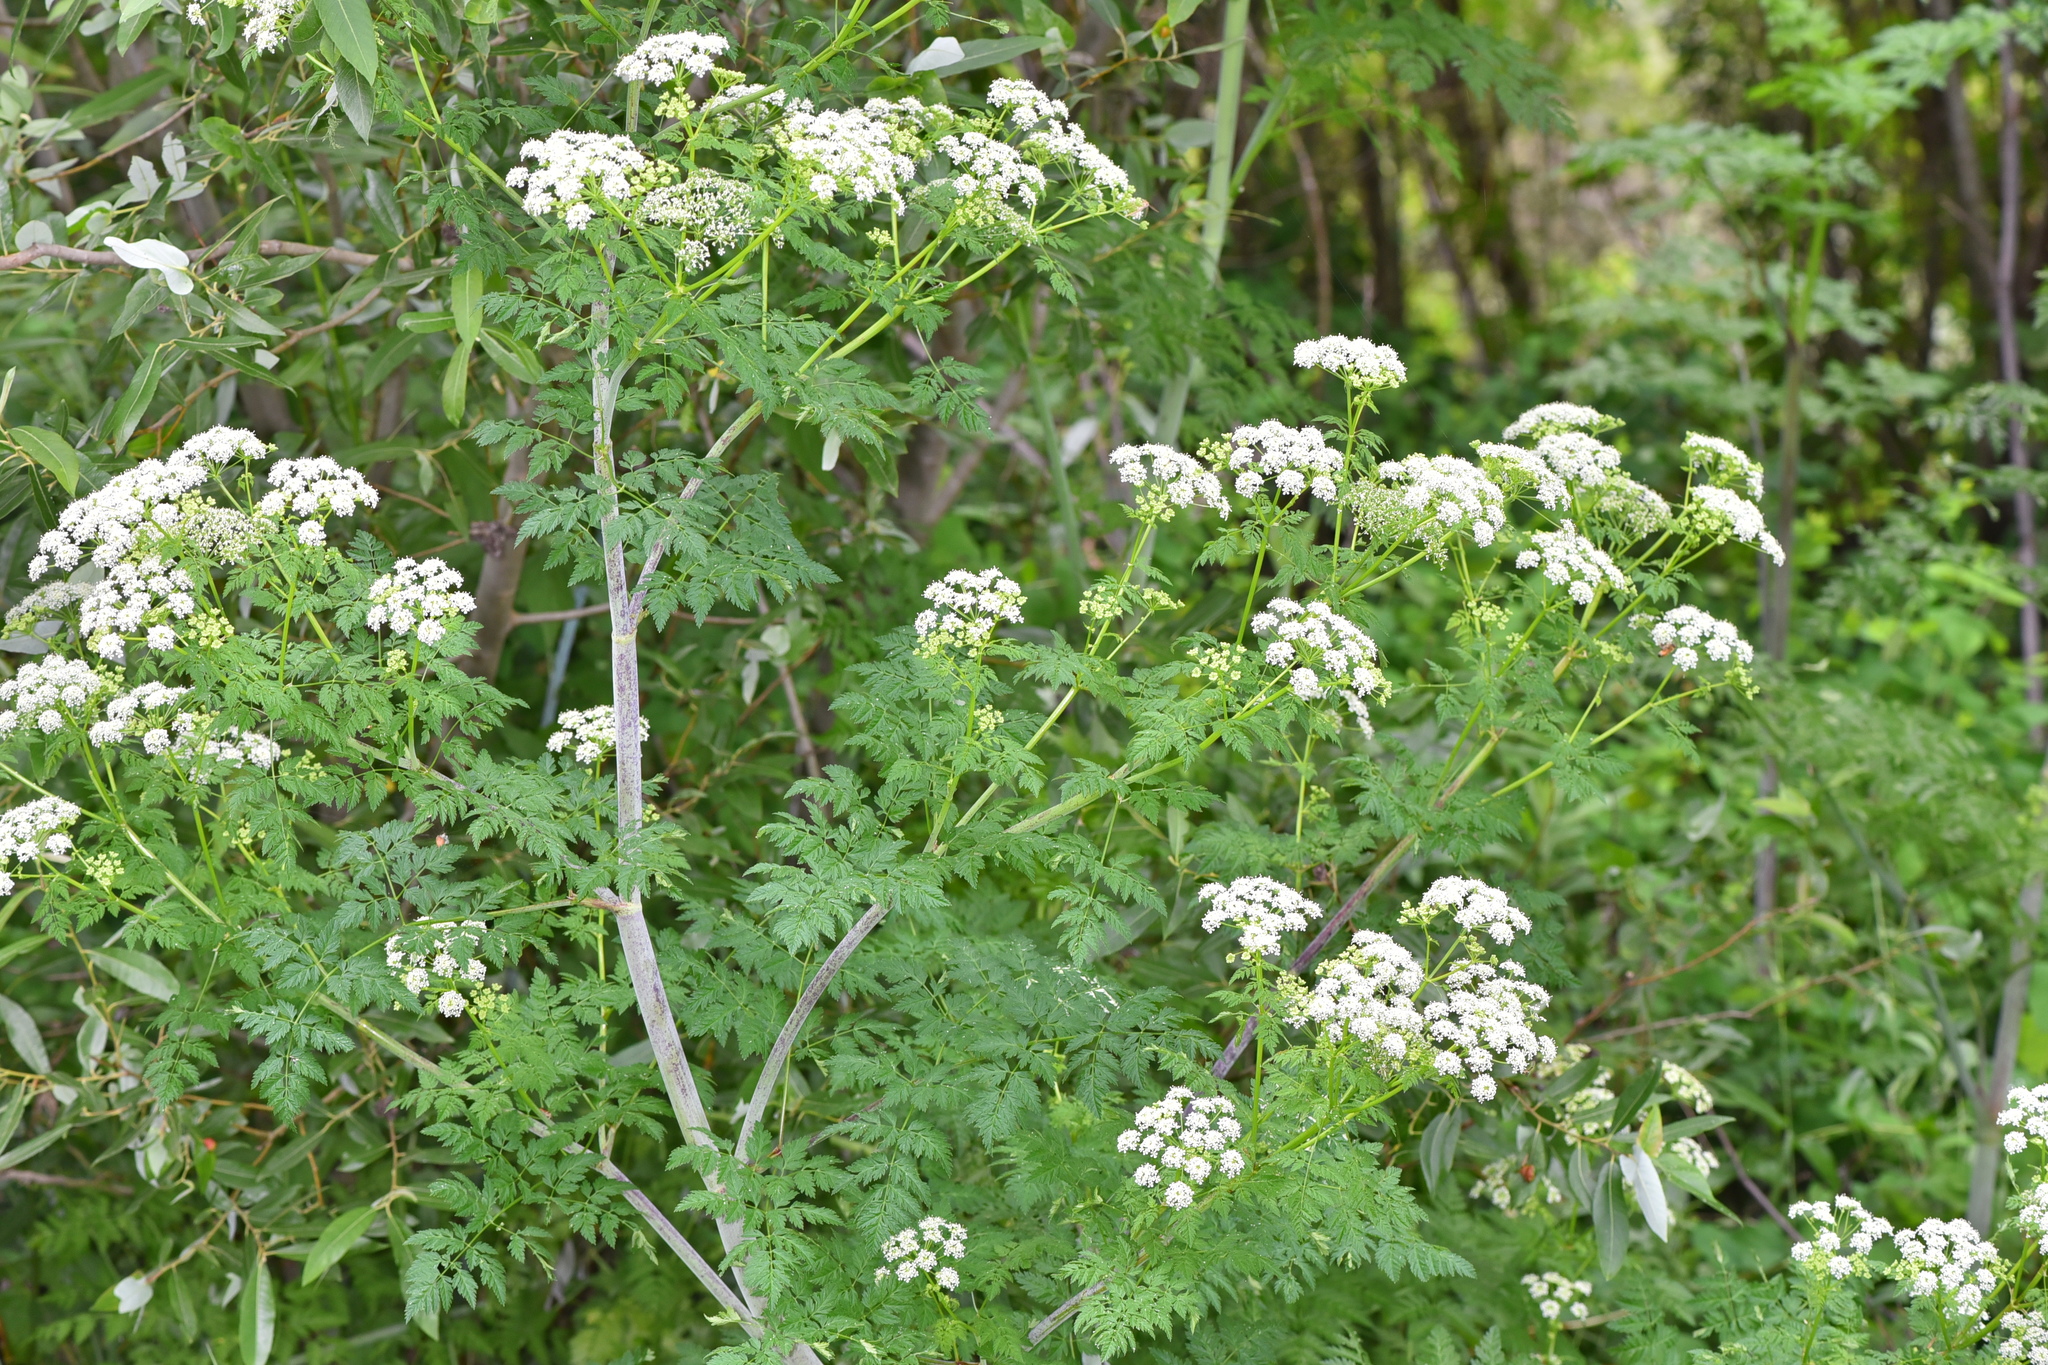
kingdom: Plantae
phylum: Tracheophyta
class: Magnoliopsida
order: Apiales
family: Apiaceae
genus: Conium
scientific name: Conium maculatum
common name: Hemlock
